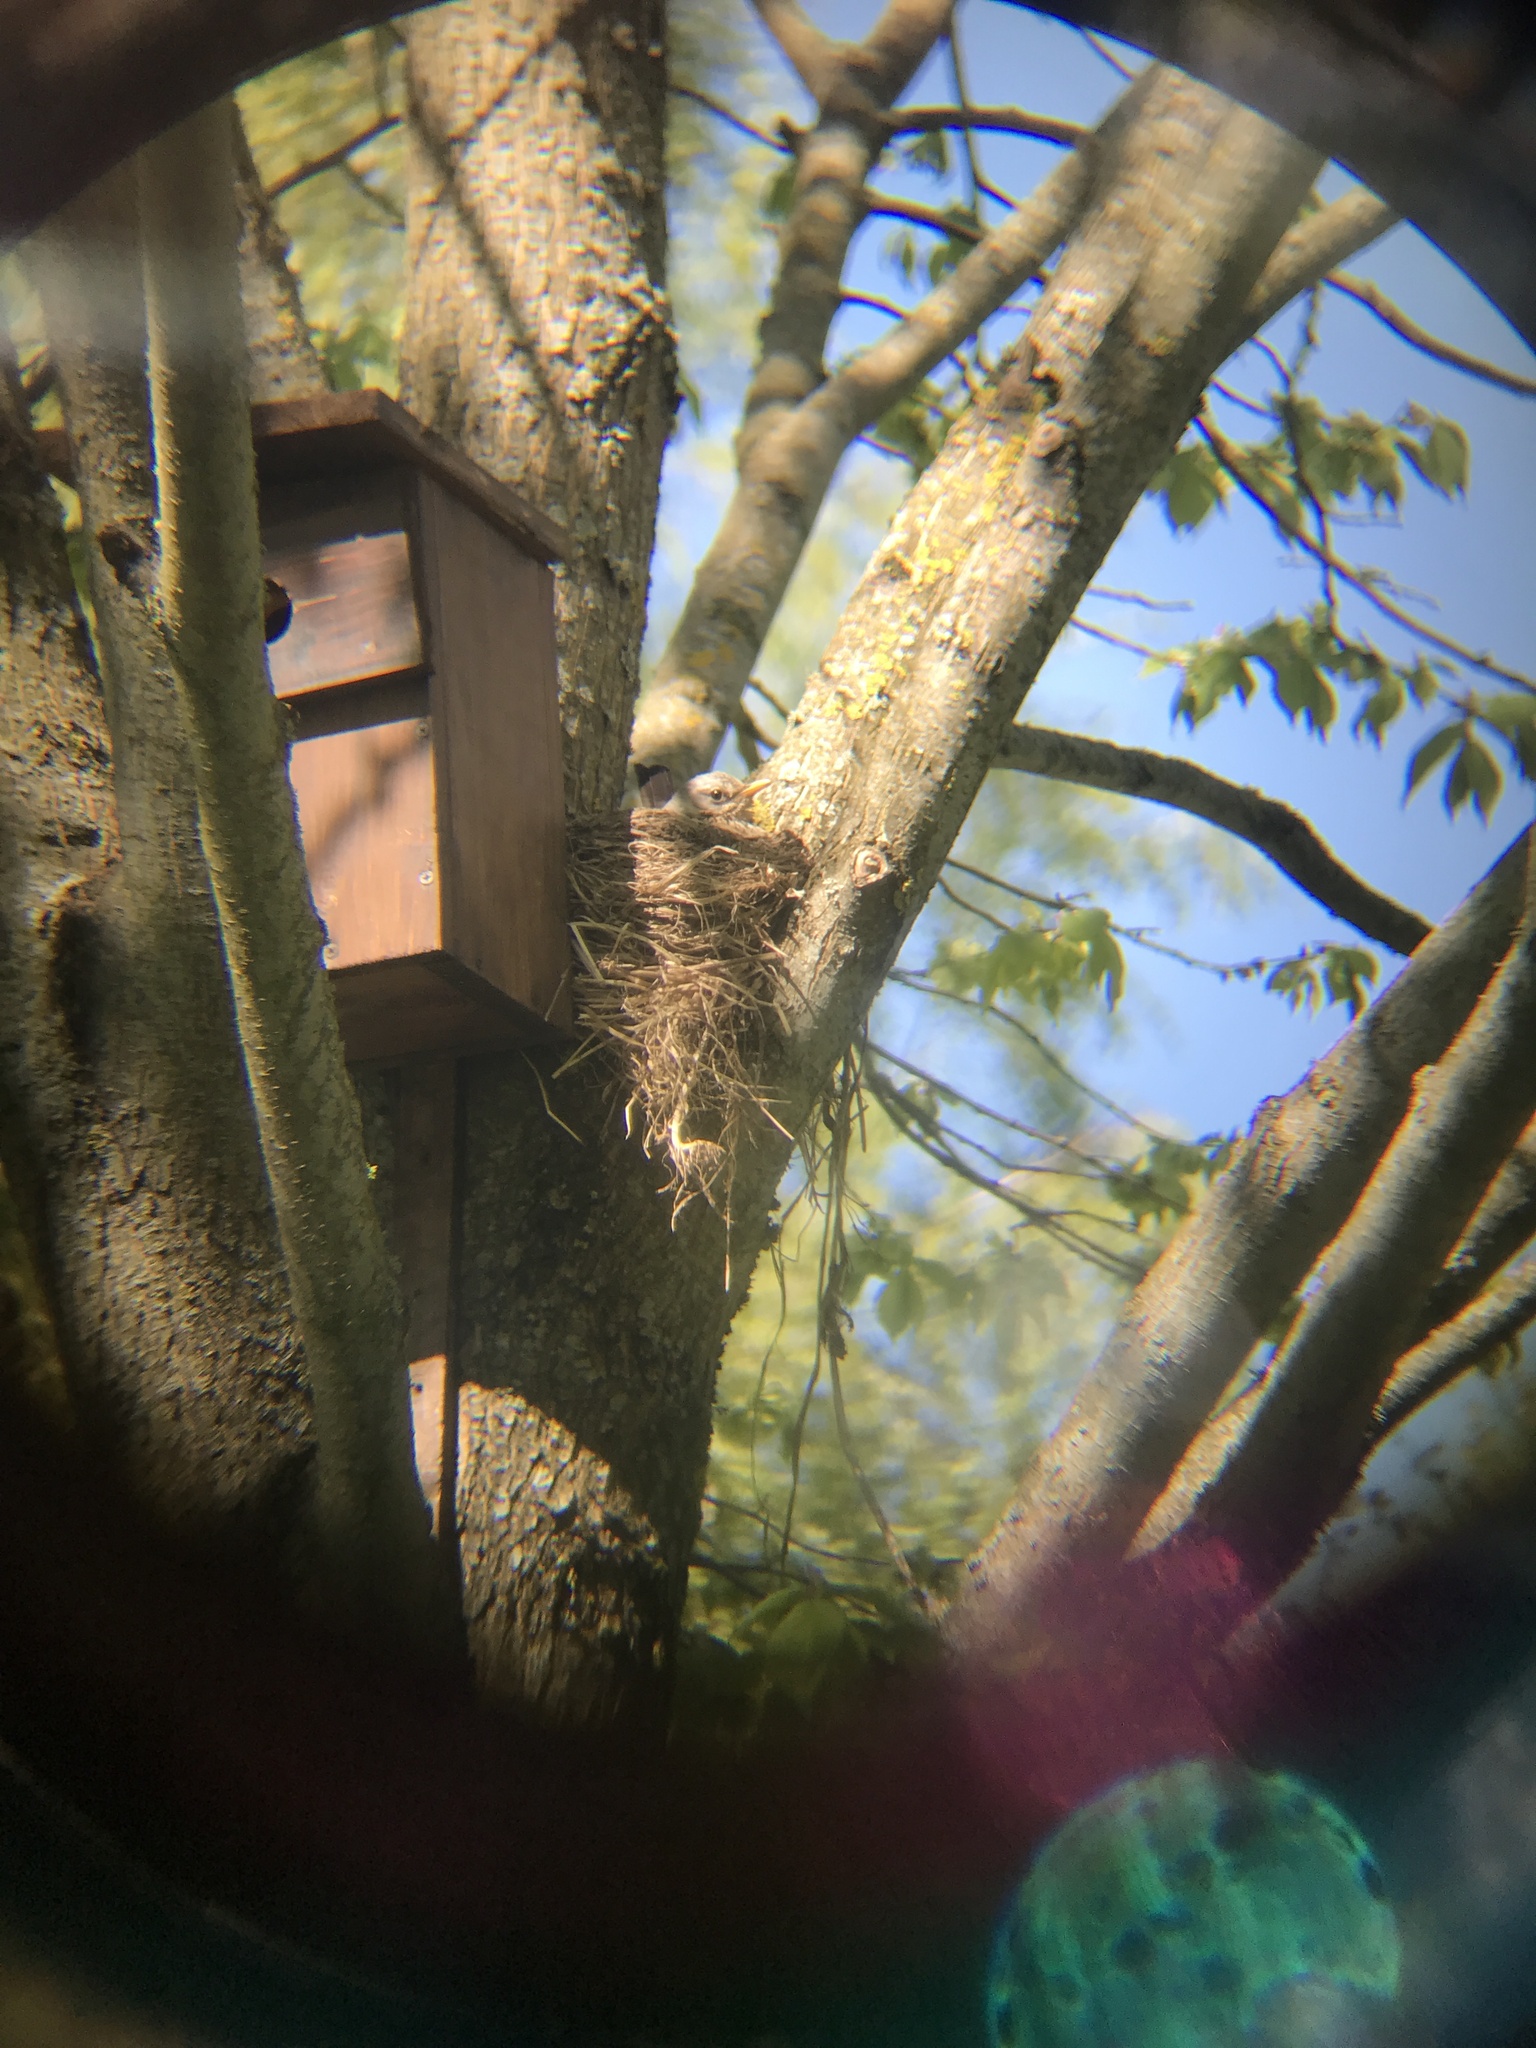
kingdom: Animalia
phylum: Chordata
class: Aves
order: Passeriformes
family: Turdidae
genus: Turdus
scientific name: Turdus pilaris
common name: Fieldfare
